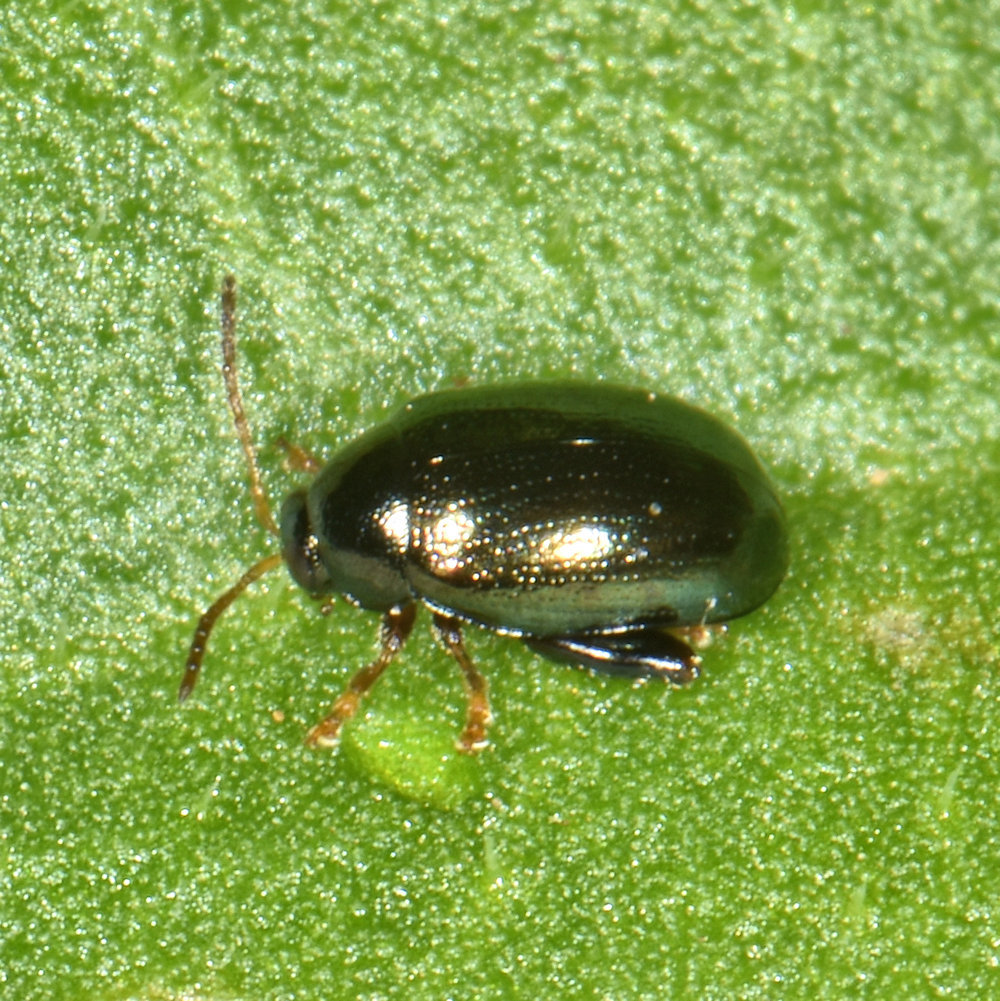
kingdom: Animalia
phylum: Arthropoda
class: Insecta
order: Coleoptera
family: Chrysomelidae
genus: Dibolia
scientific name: Dibolia borealis
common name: Northern plantain flea beetle
